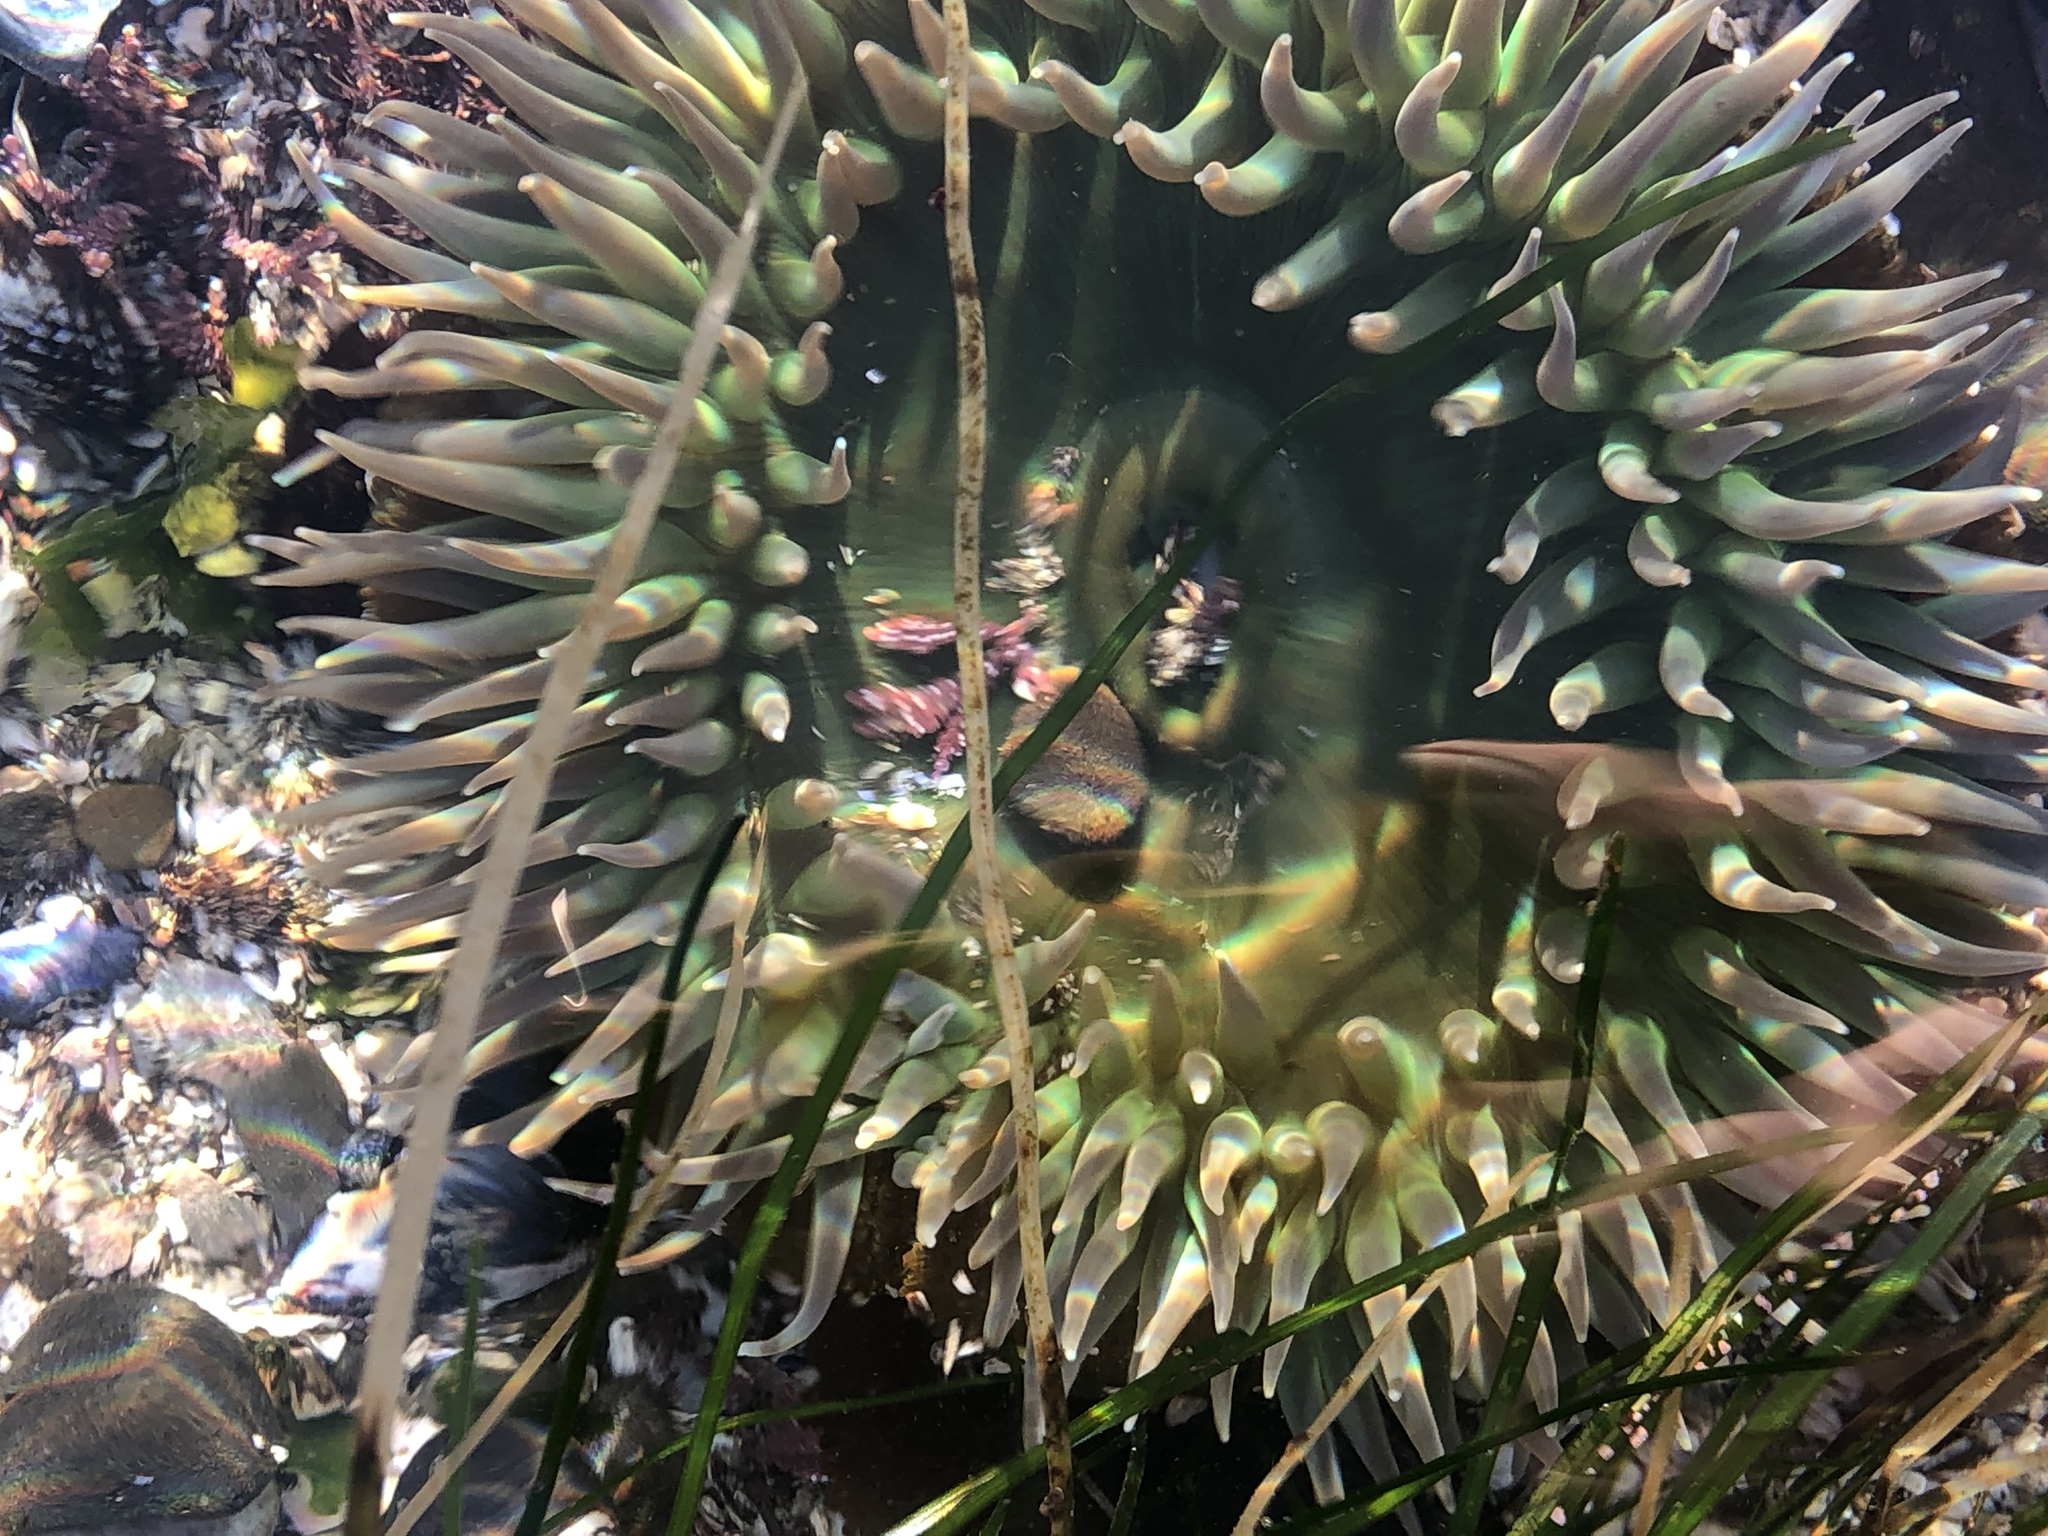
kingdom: Animalia
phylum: Echinodermata
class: Asteroidea
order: Forcipulatida
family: Asteriidae
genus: Pisaster
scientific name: Pisaster ochraceus
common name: Ochre stars
